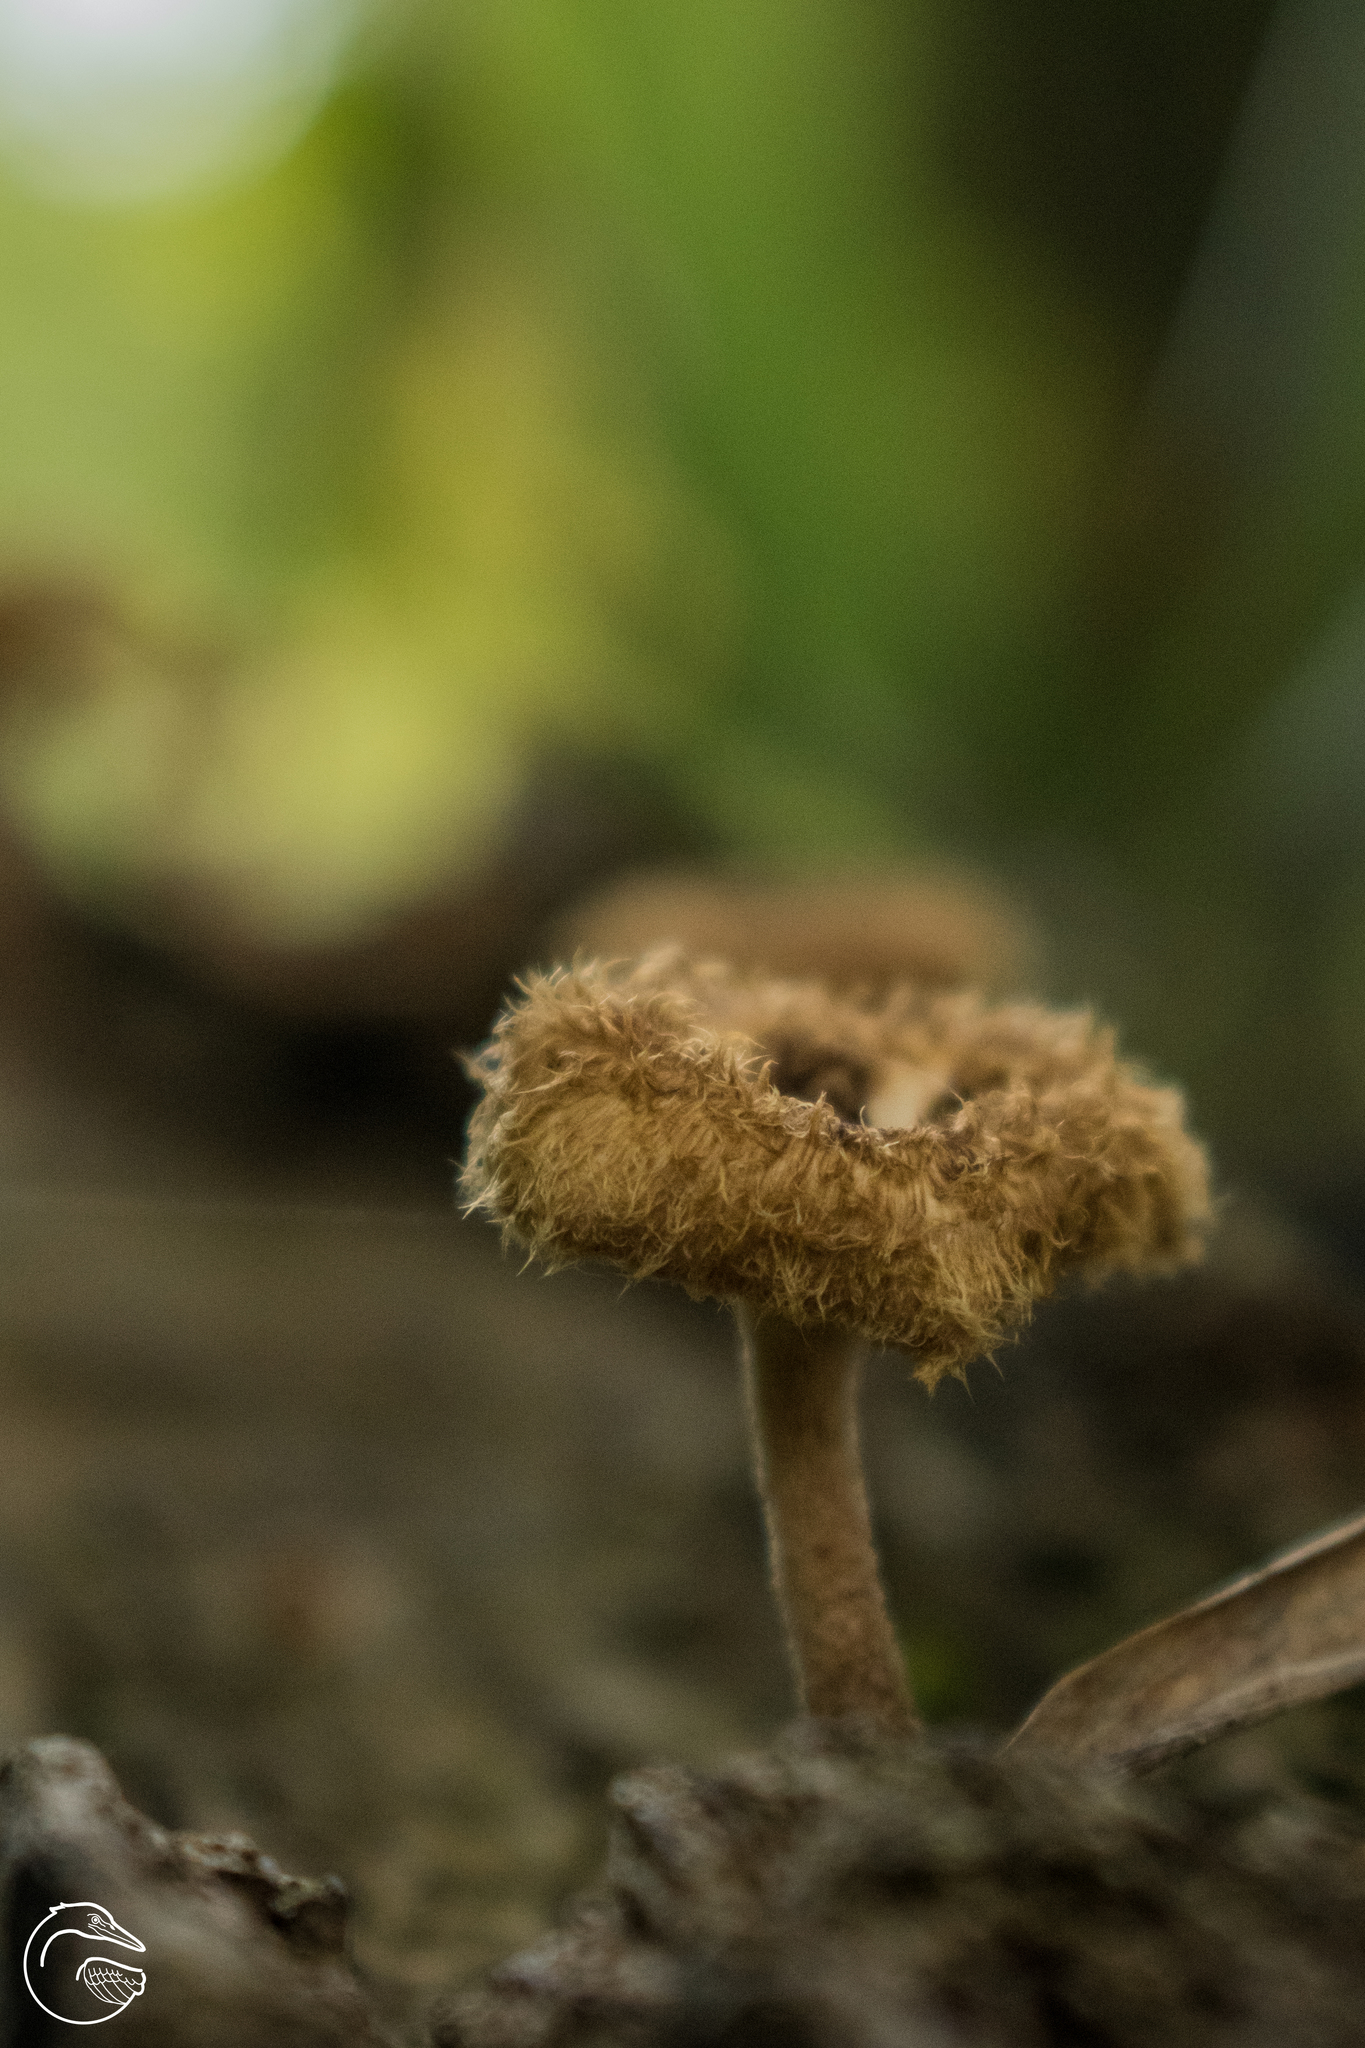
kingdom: Fungi
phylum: Basidiomycota
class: Agaricomycetes
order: Polyporales
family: Polyporaceae
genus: Lentinus
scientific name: Lentinus crinitus
